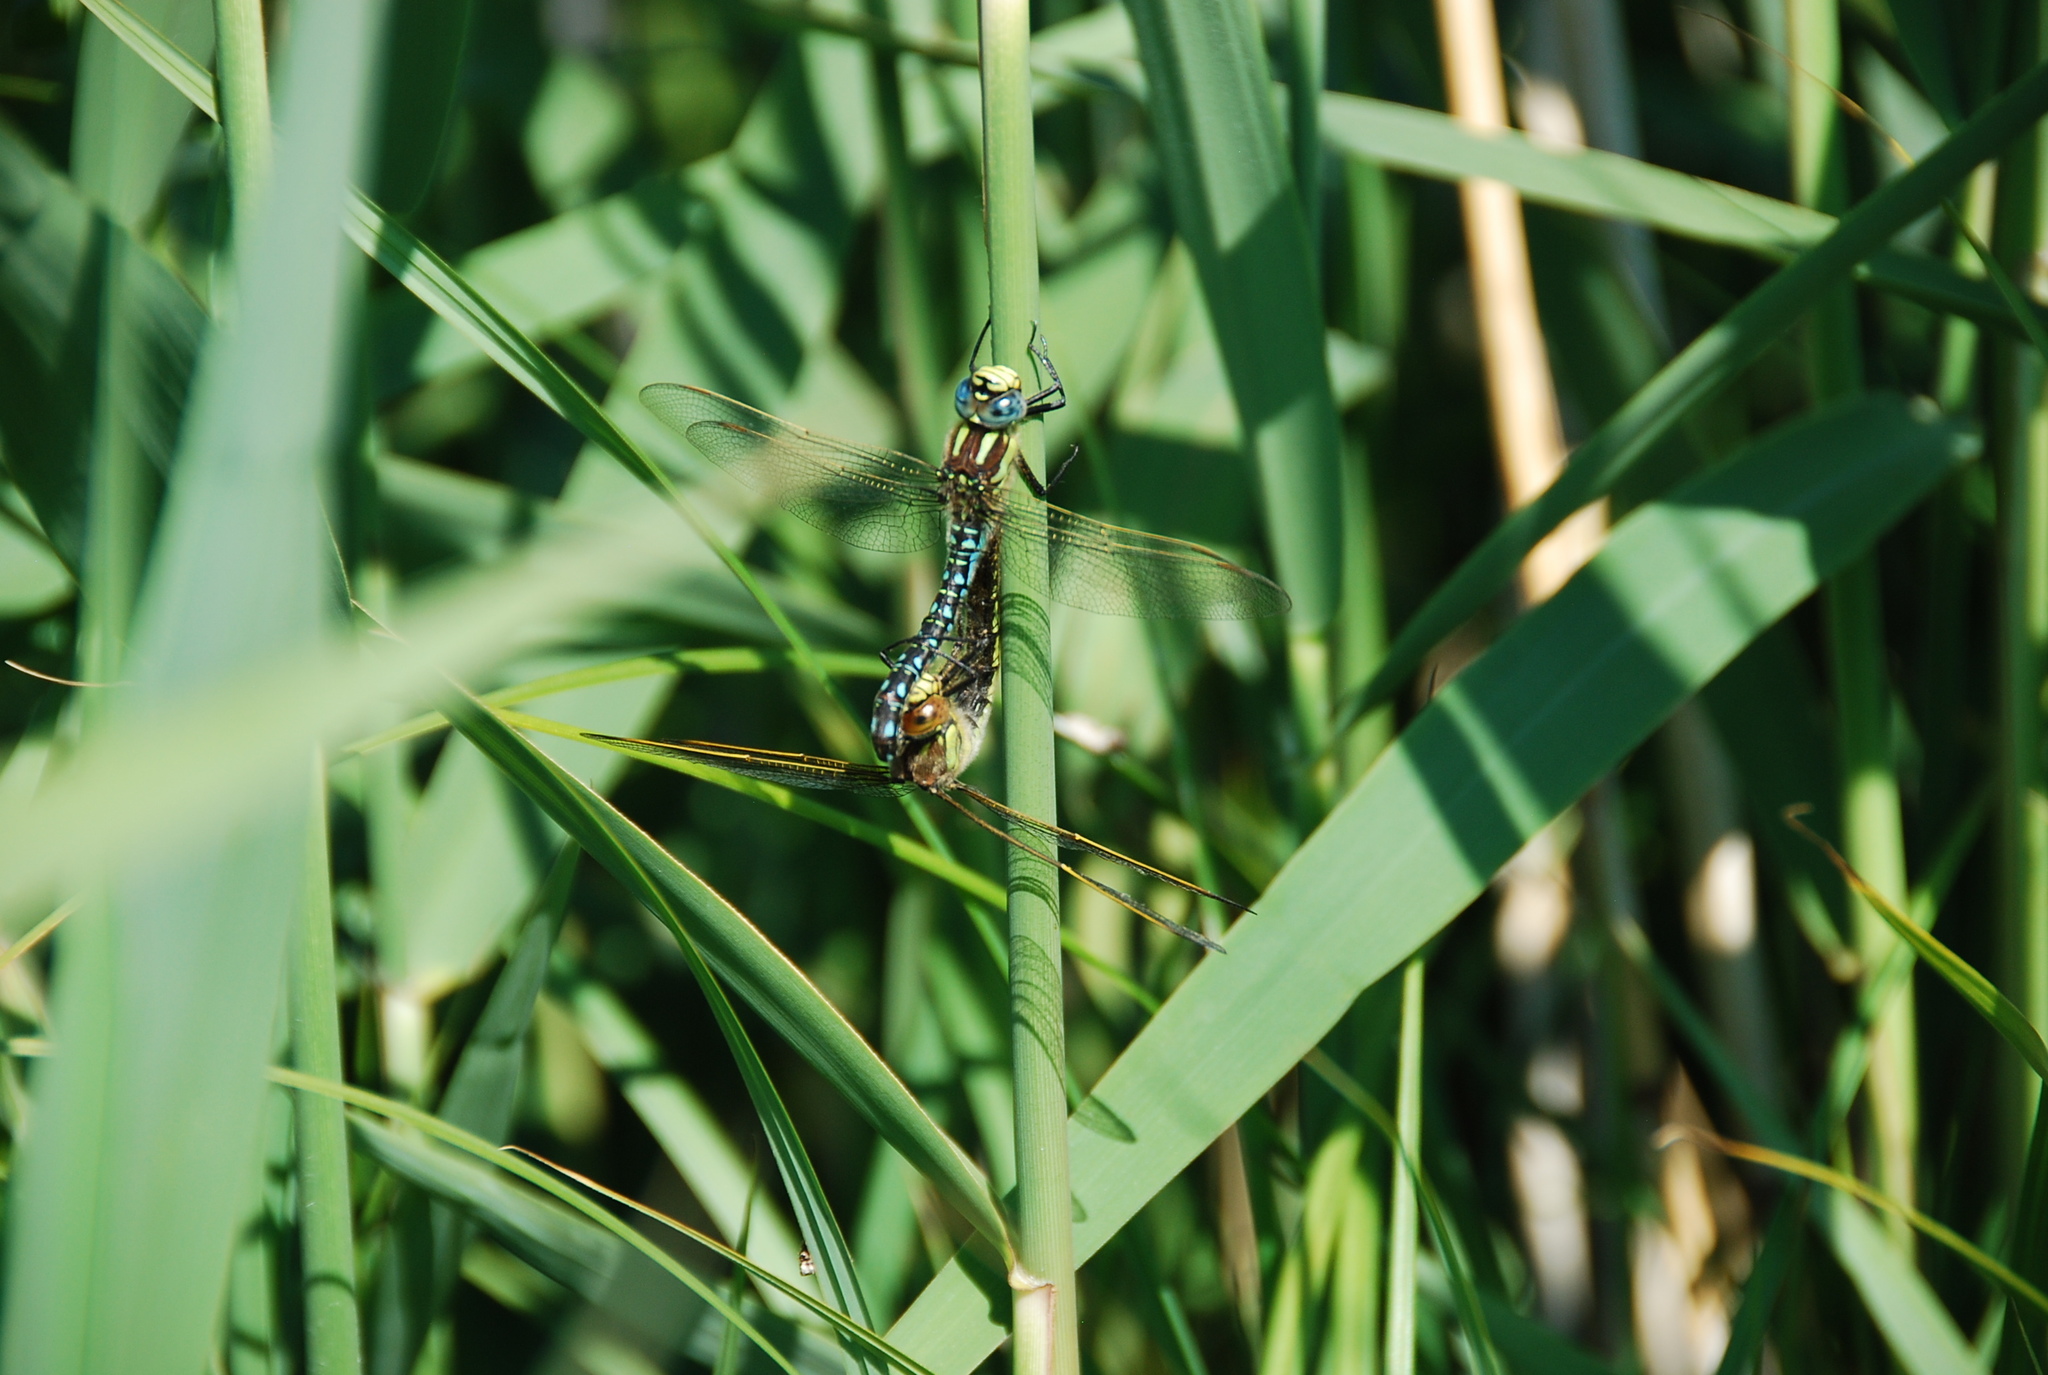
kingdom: Animalia
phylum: Arthropoda
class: Insecta
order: Odonata
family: Aeshnidae
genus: Brachytron
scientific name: Brachytron pratense
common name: Hairy hawker
